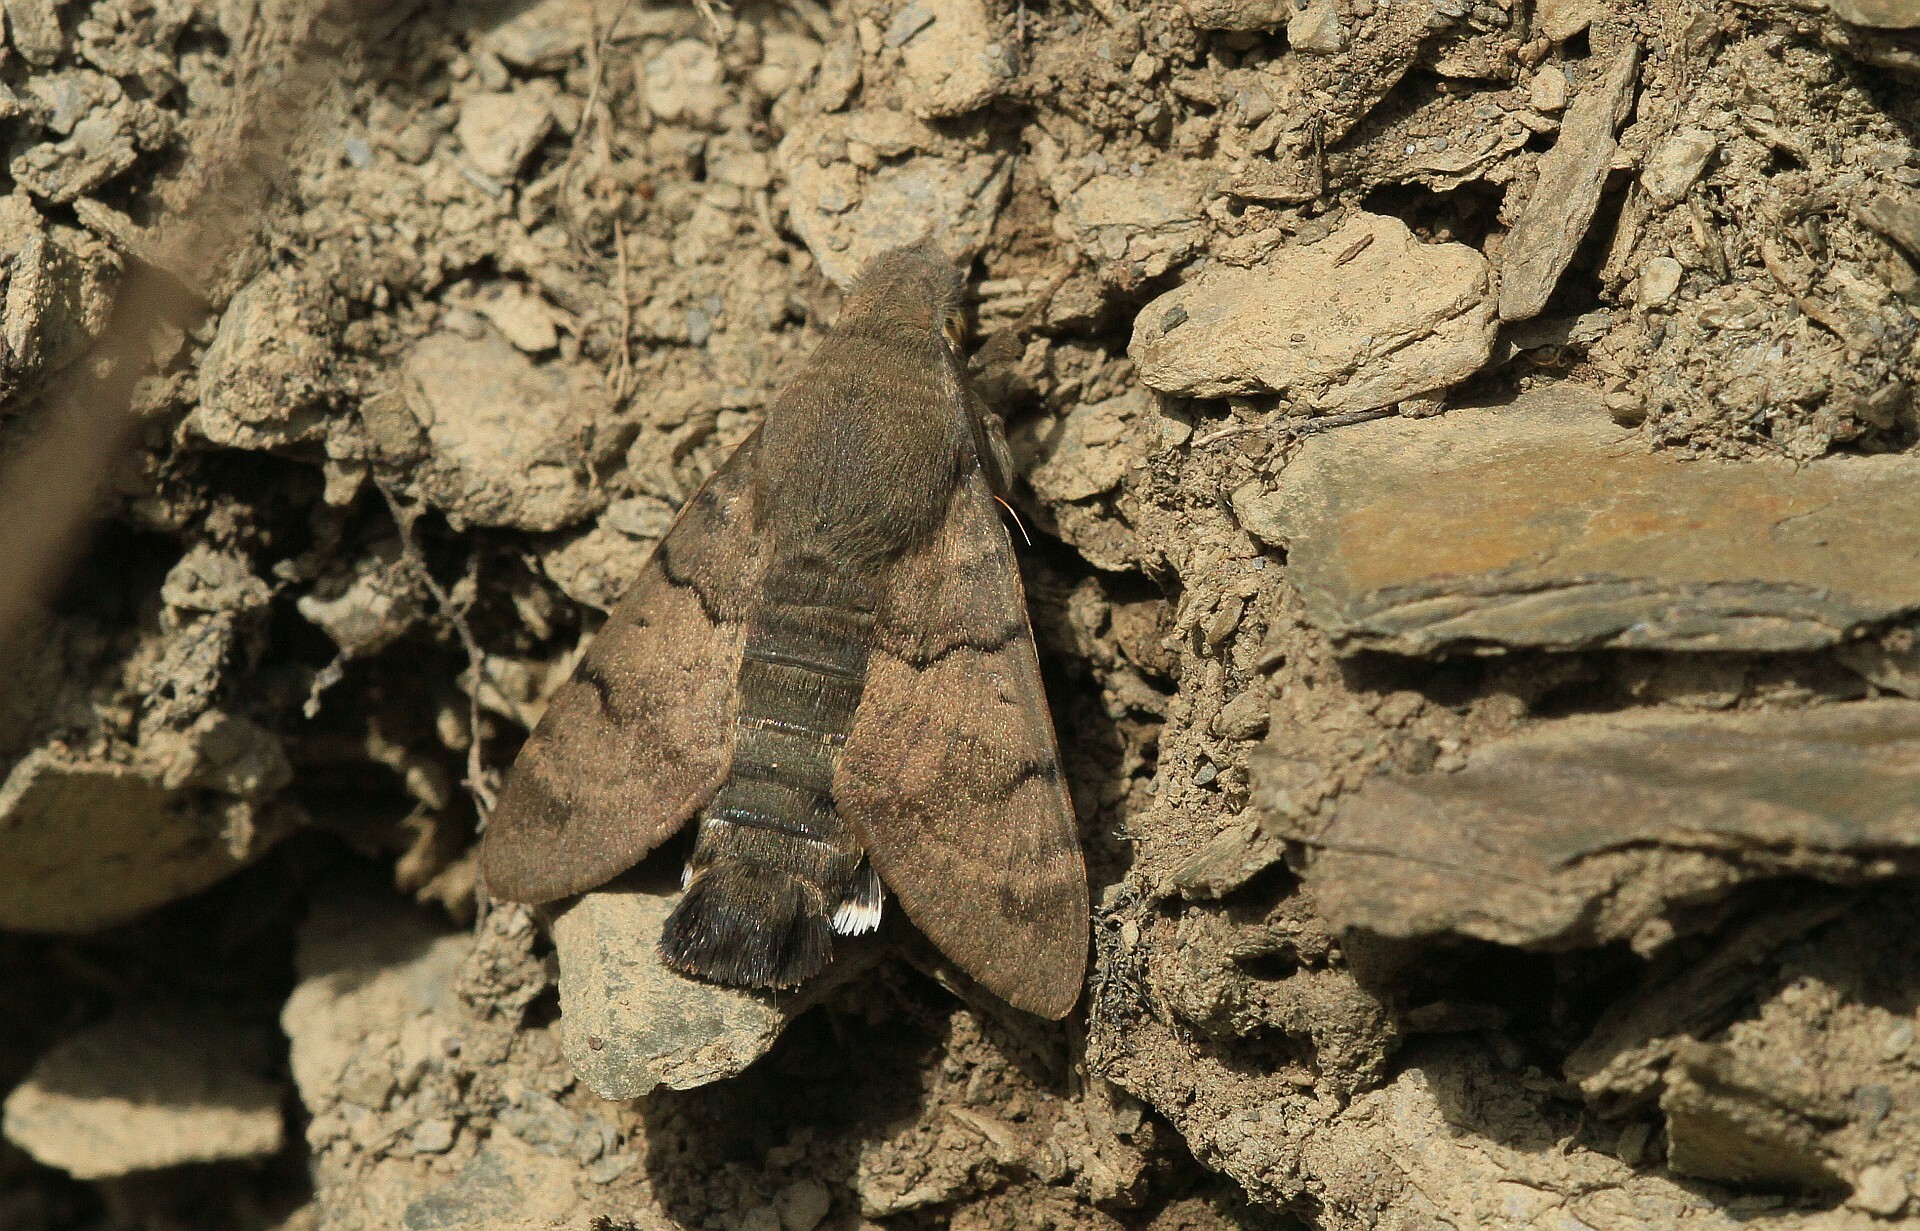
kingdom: Animalia
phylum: Arthropoda
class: Insecta
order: Lepidoptera
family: Sphingidae
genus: Macroglossum
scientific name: Macroglossum stellatarum
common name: Humming-bird hawk-moth
